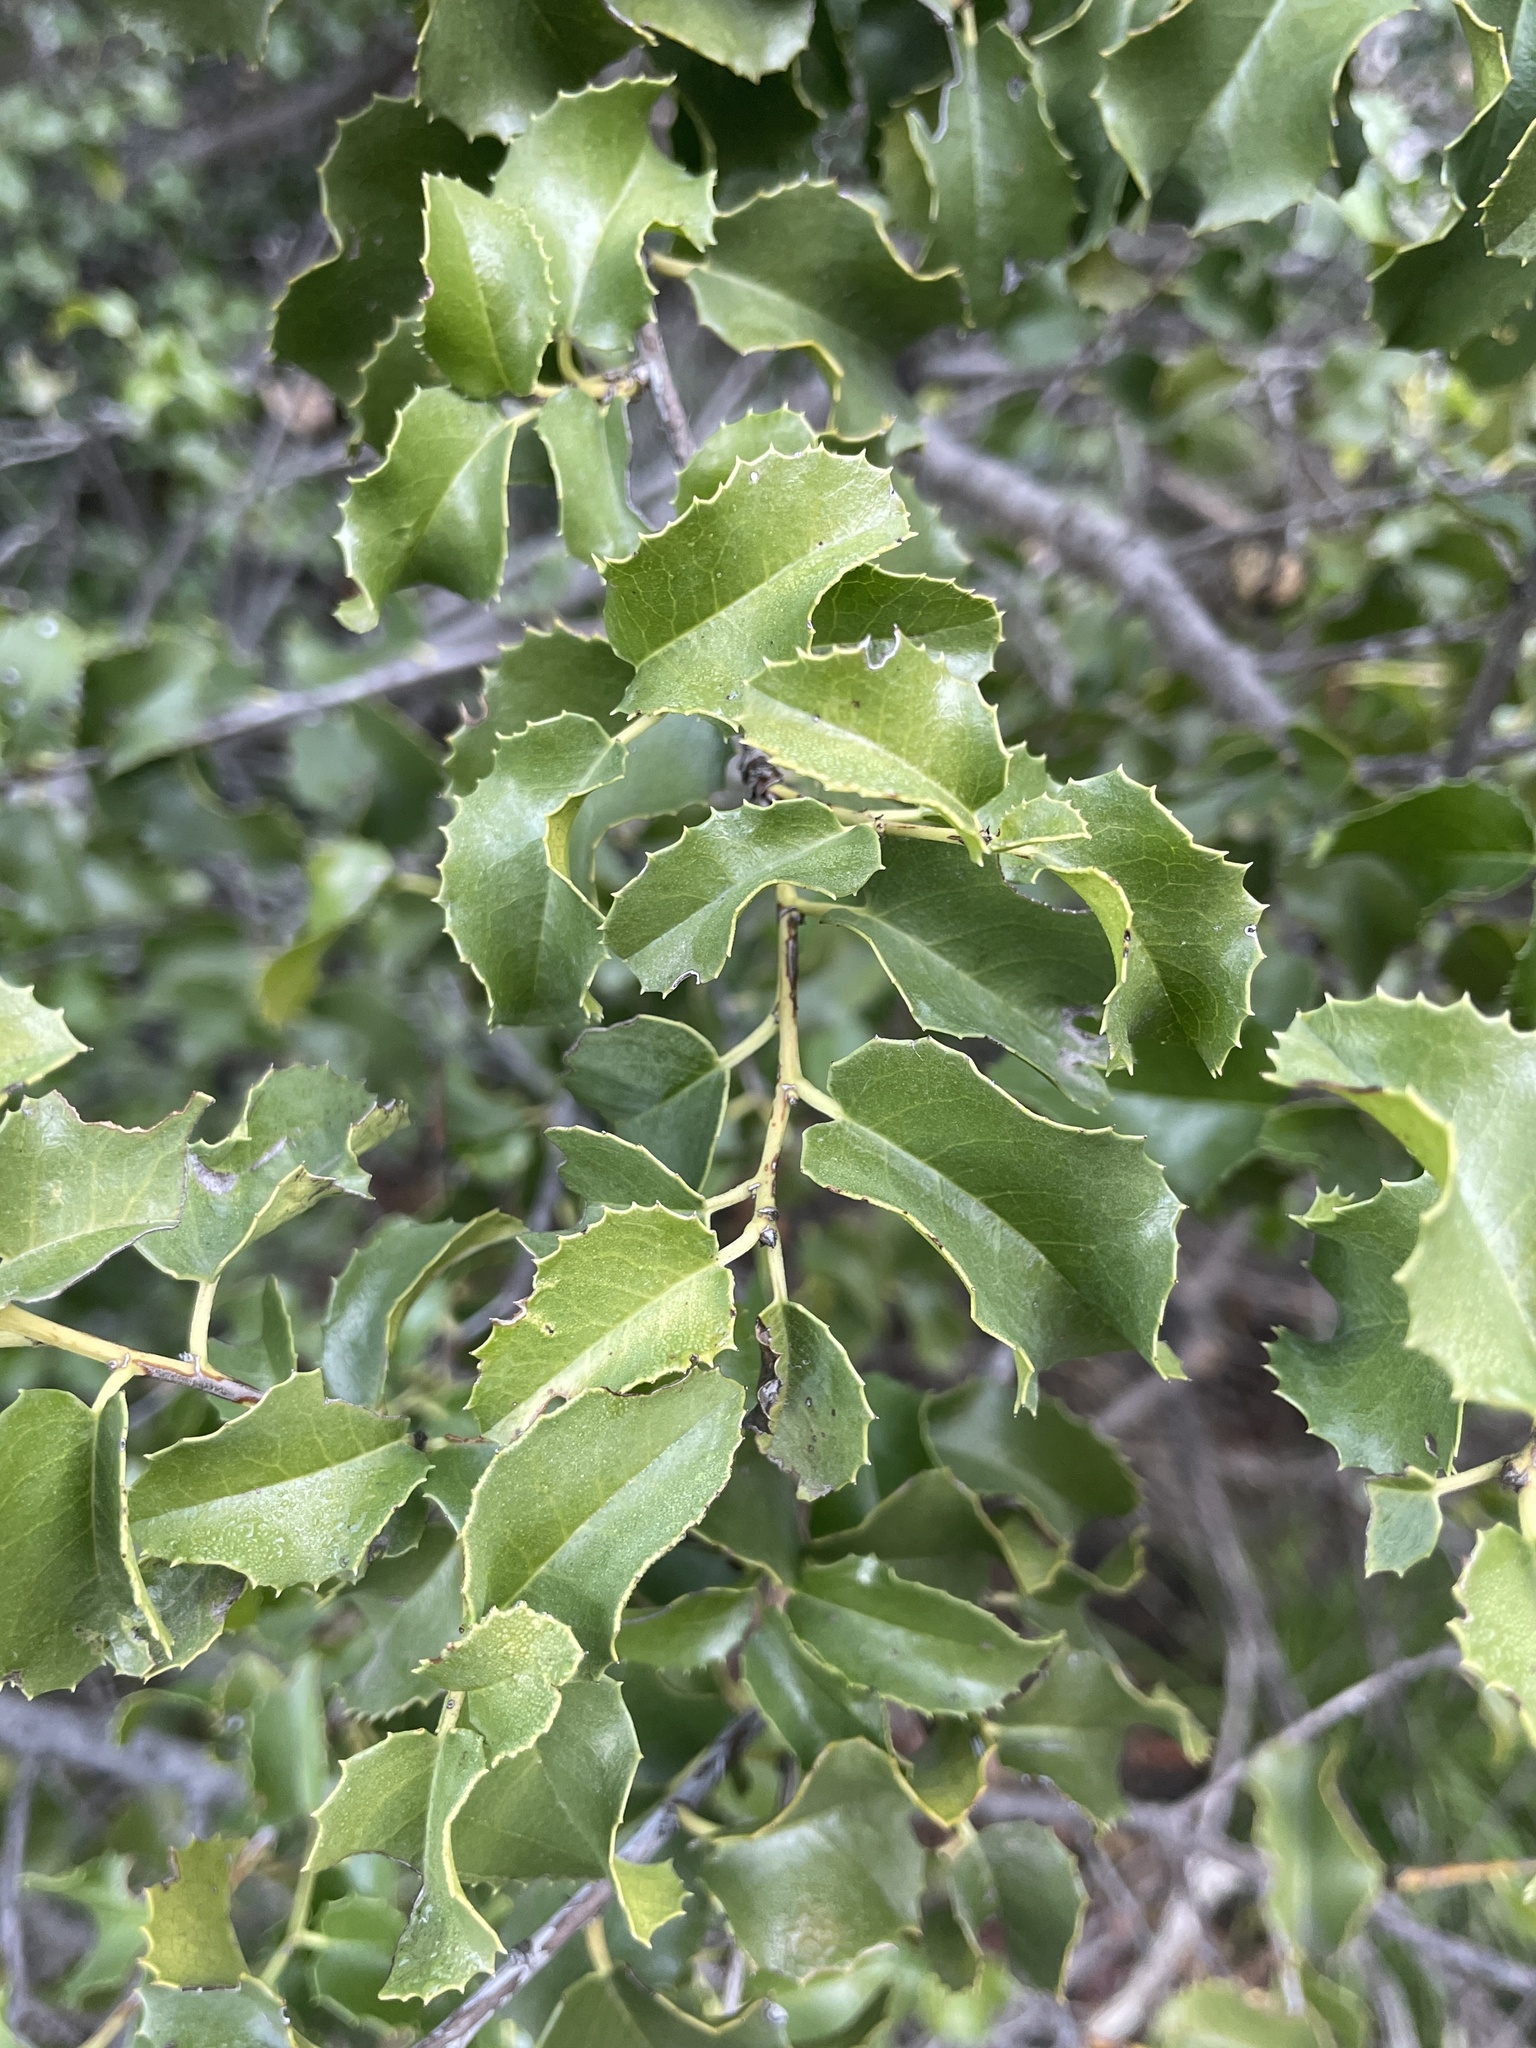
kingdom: Plantae
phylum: Tracheophyta
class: Magnoliopsida
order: Rosales
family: Rosaceae
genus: Prunus
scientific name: Prunus ilicifolia
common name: Hollyleaf cherry
